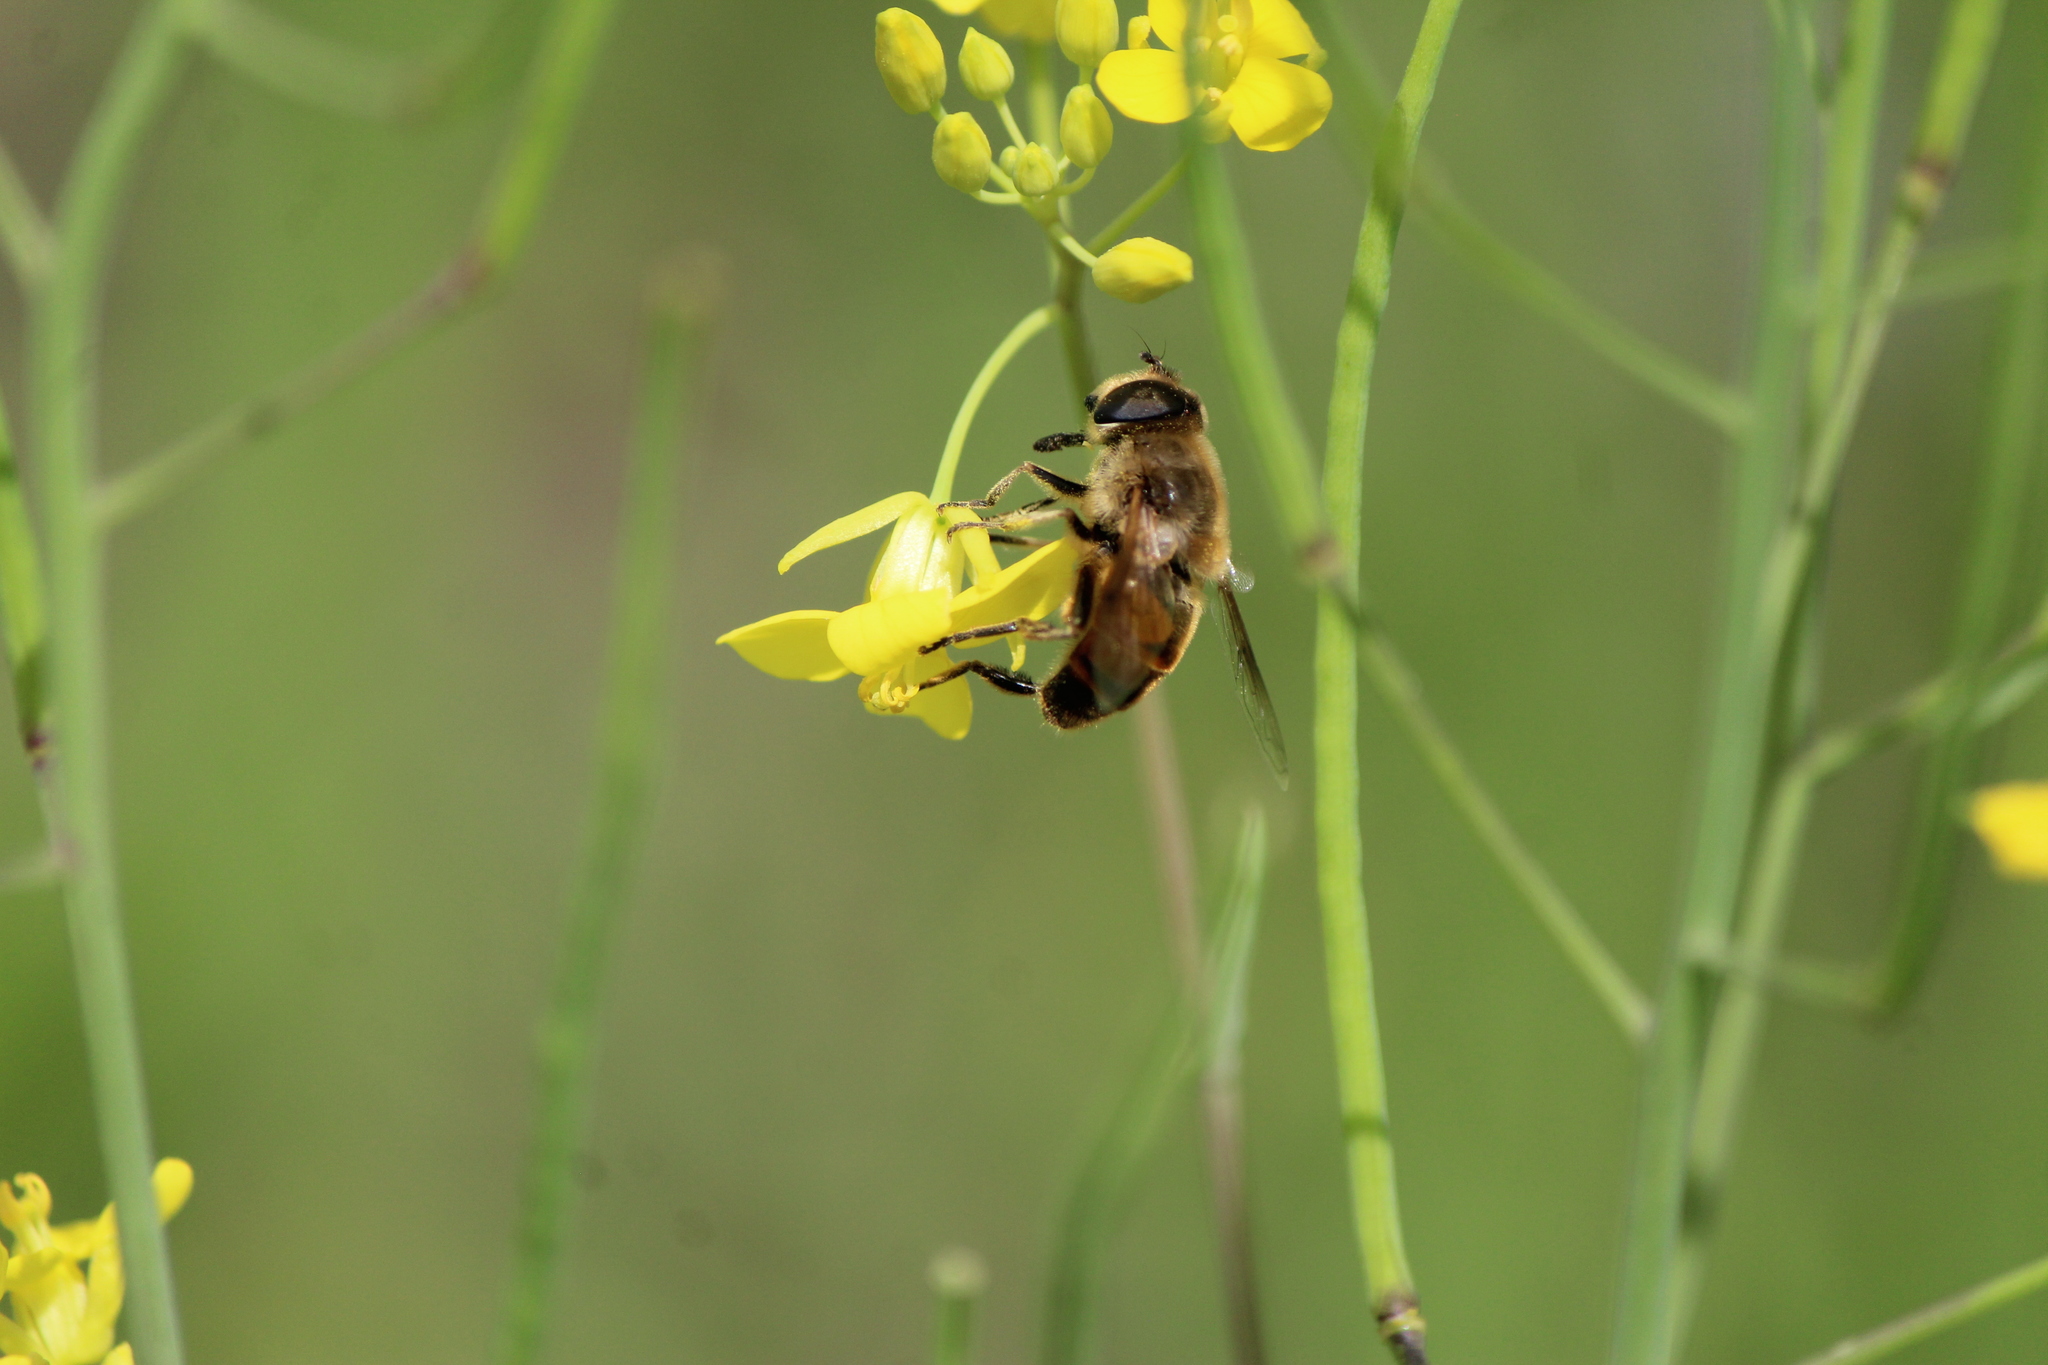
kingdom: Animalia
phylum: Arthropoda
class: Insecta
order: Diptera
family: Syrphidae
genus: Eristalis
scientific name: Eristalis tenax
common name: Drone fly
